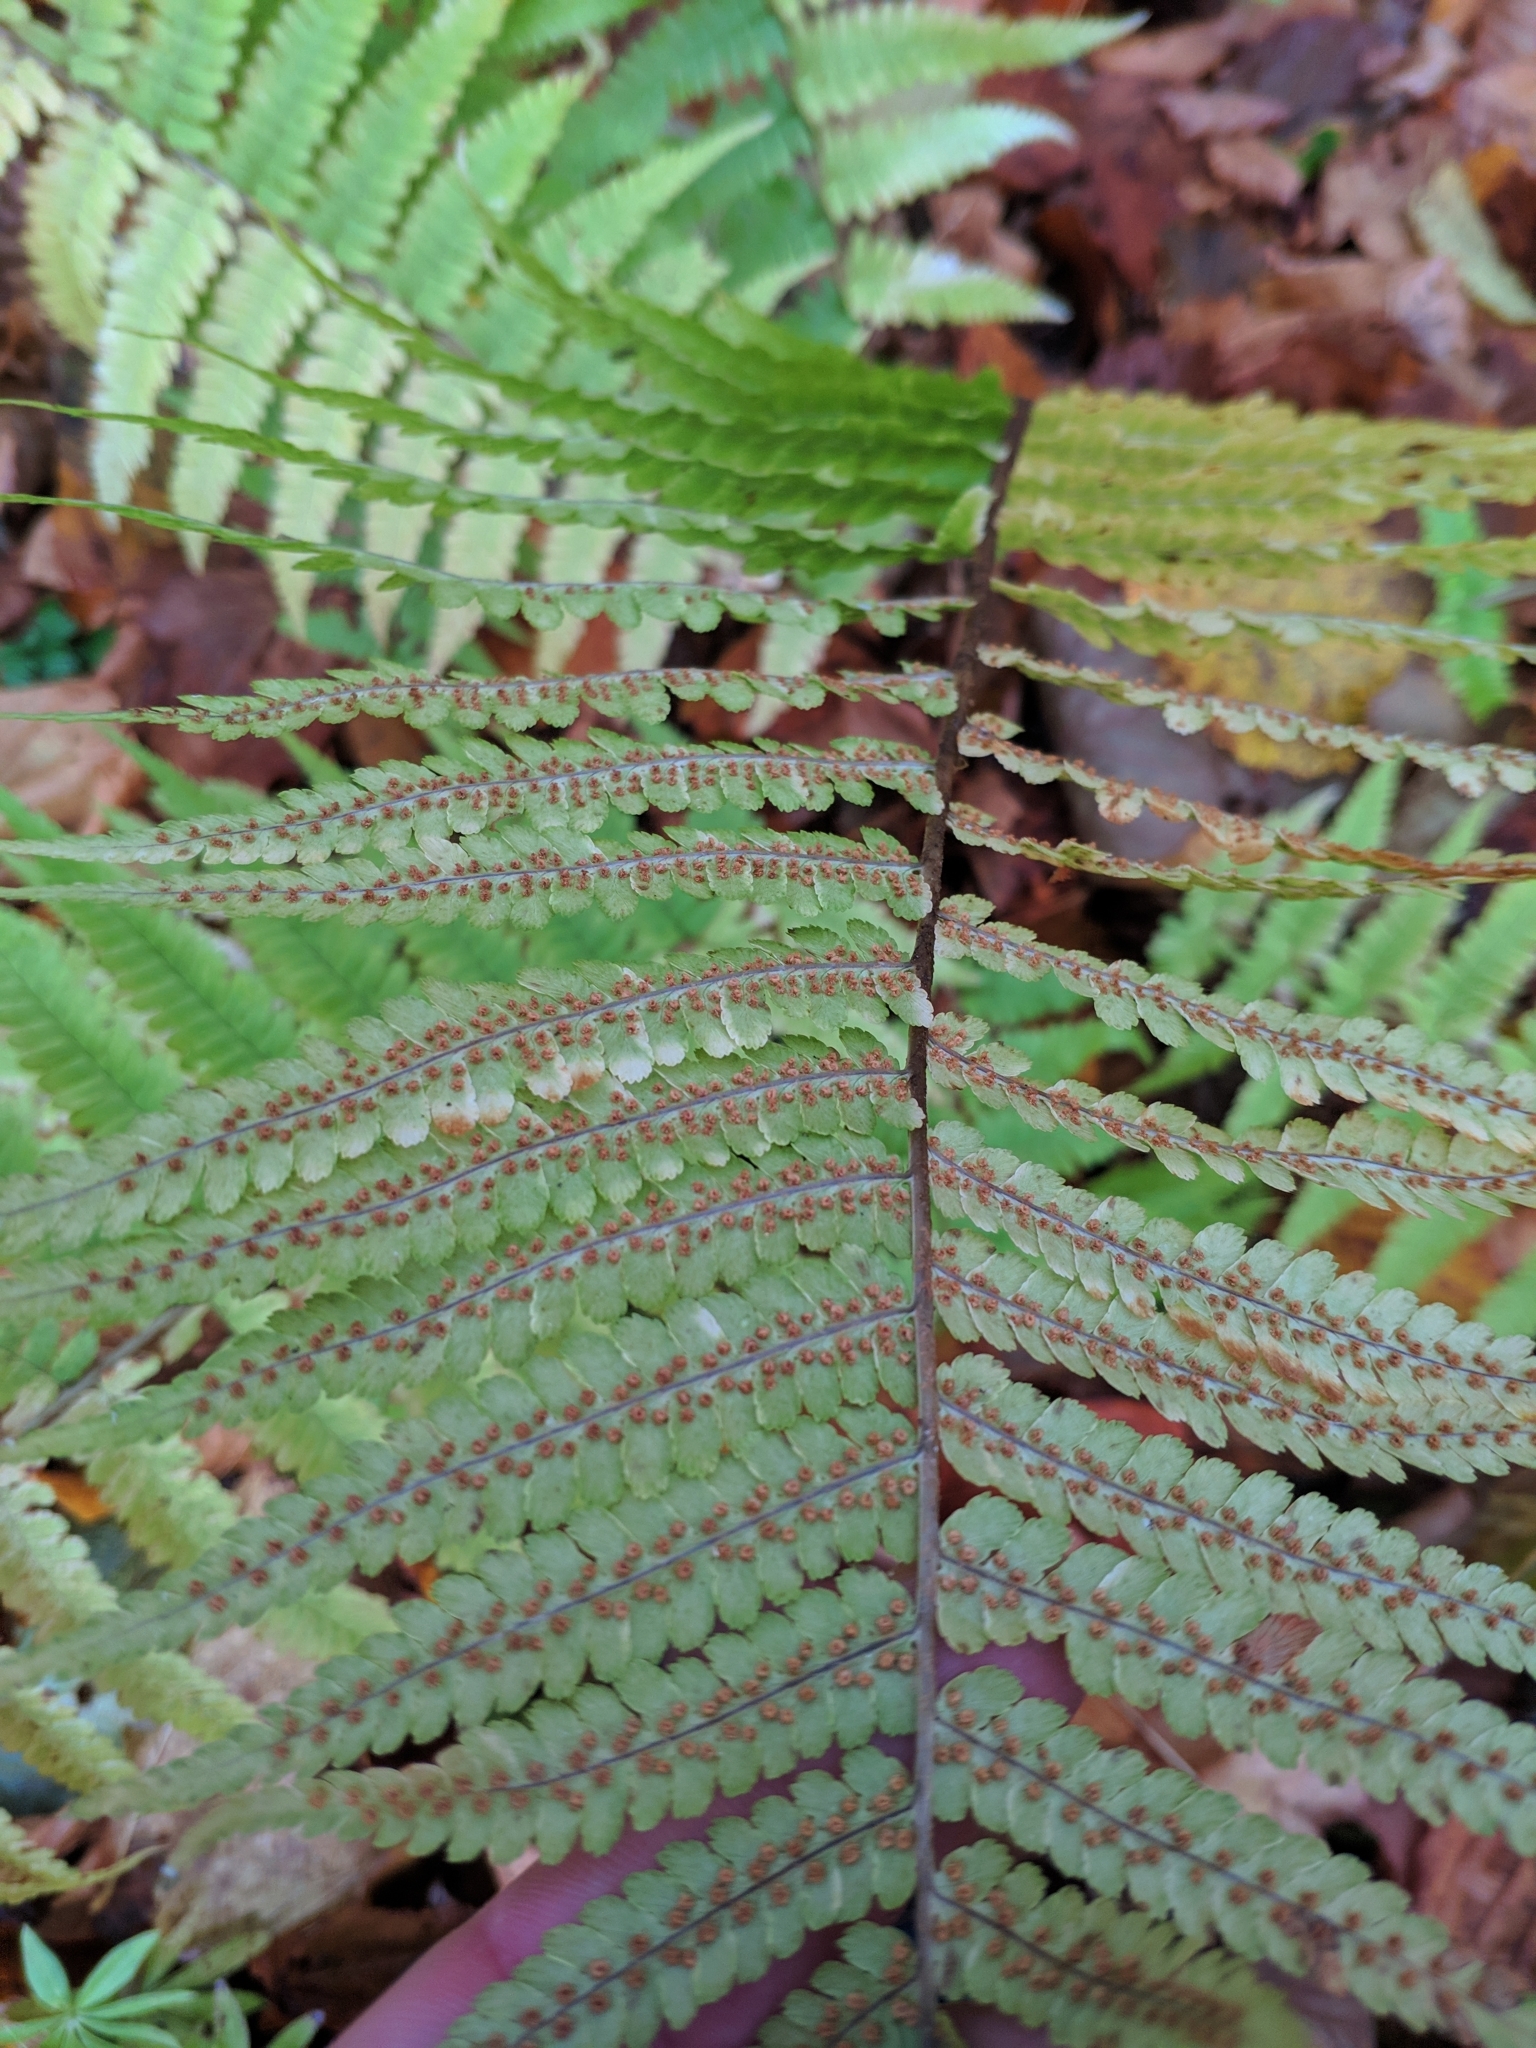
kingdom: Plantae
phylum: Tracheophyta
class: Polypodiopsida
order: Polypodiales
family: Dryopteridaceae
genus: Dryopteris
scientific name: Dryopteris filix-mas
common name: Male fern
